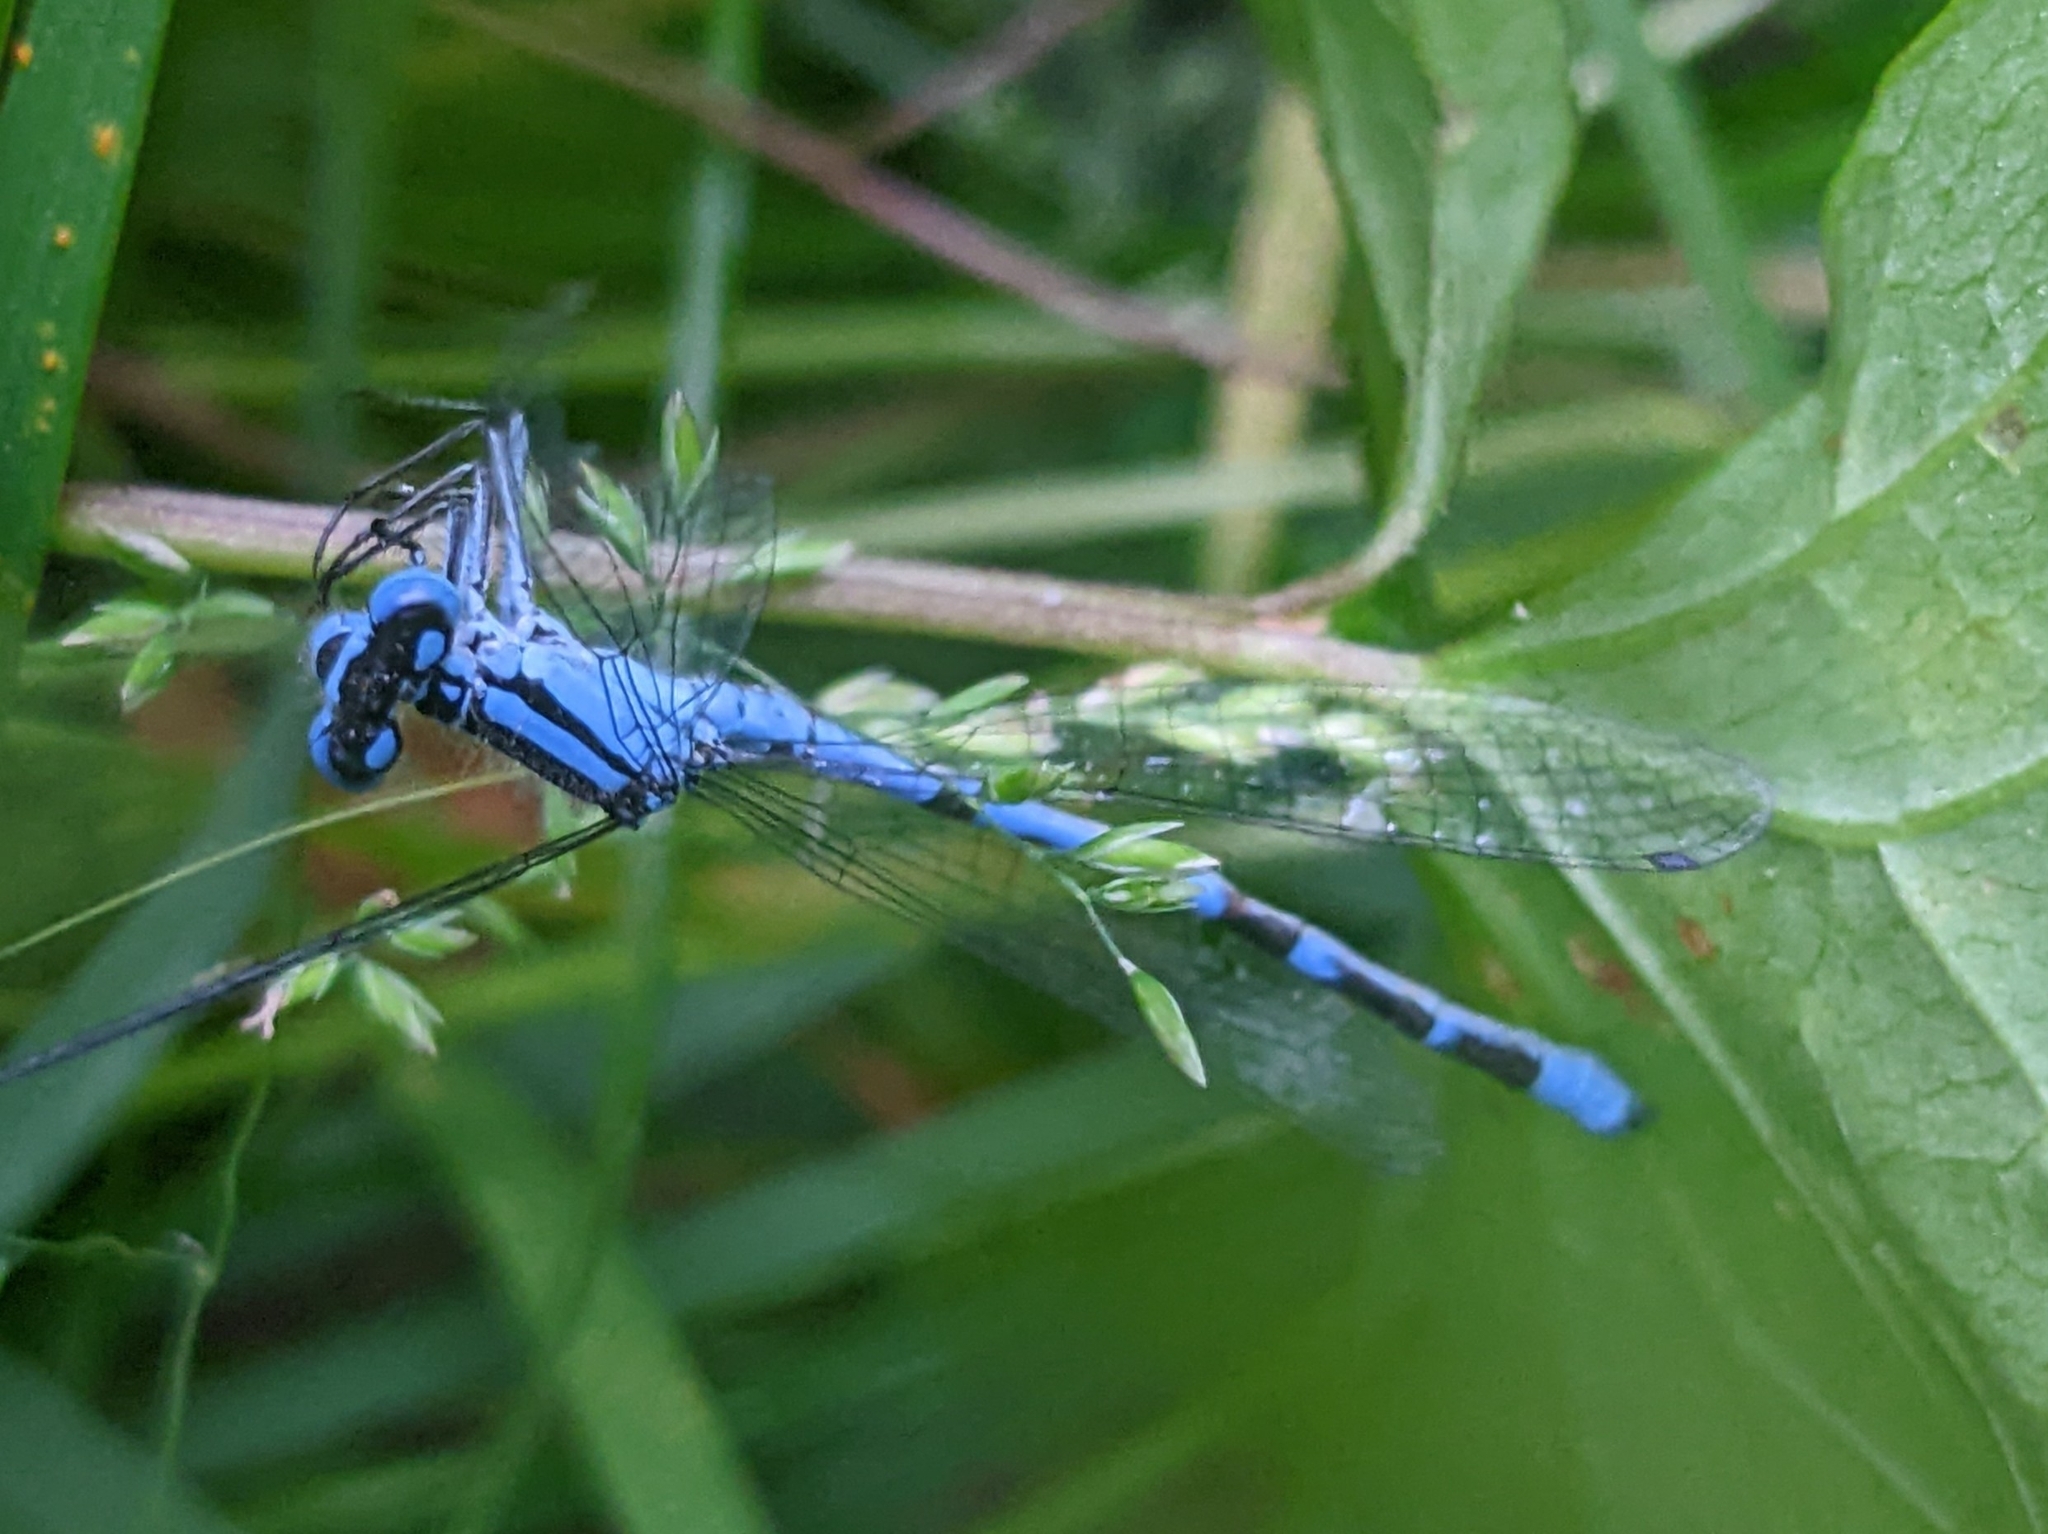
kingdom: Animalia
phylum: Arthropoda
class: Insecta
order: Odonata
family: Coenagrionidae
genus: Enallagma
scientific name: Enallagma cyathigerum
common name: Common blue damselfly
